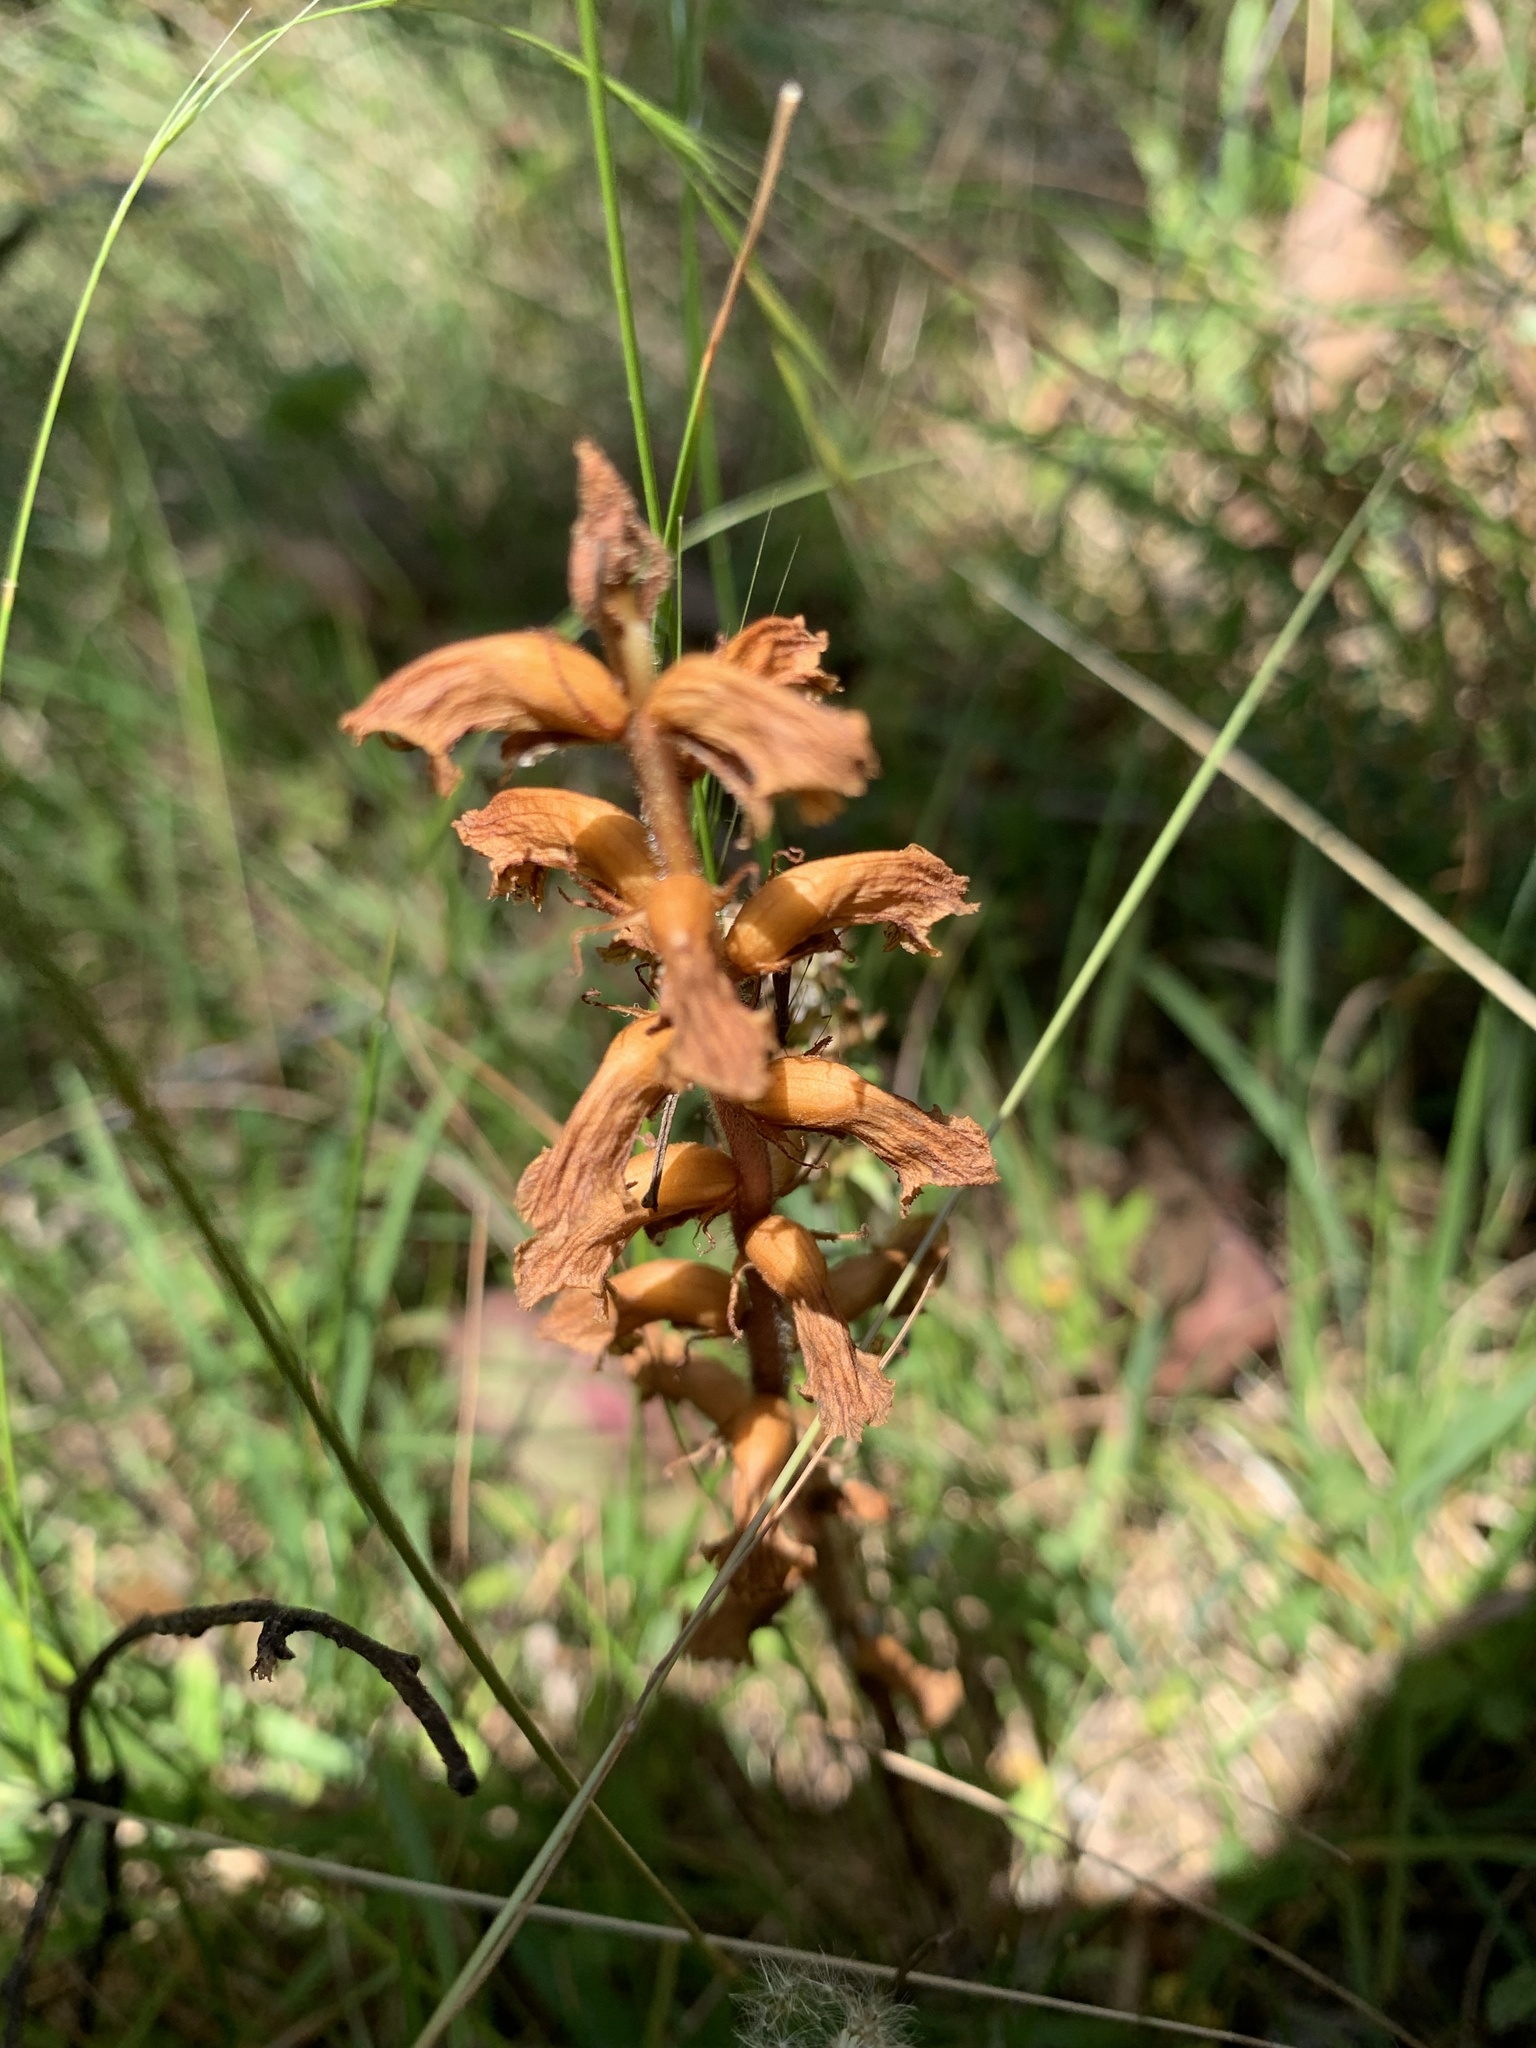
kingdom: Plantae
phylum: Tracheophyta
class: Magnoliopsida
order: Lamiales
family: Orobanchaceae
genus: Orobanche
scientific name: Orobanche minor
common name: Common broomrape
